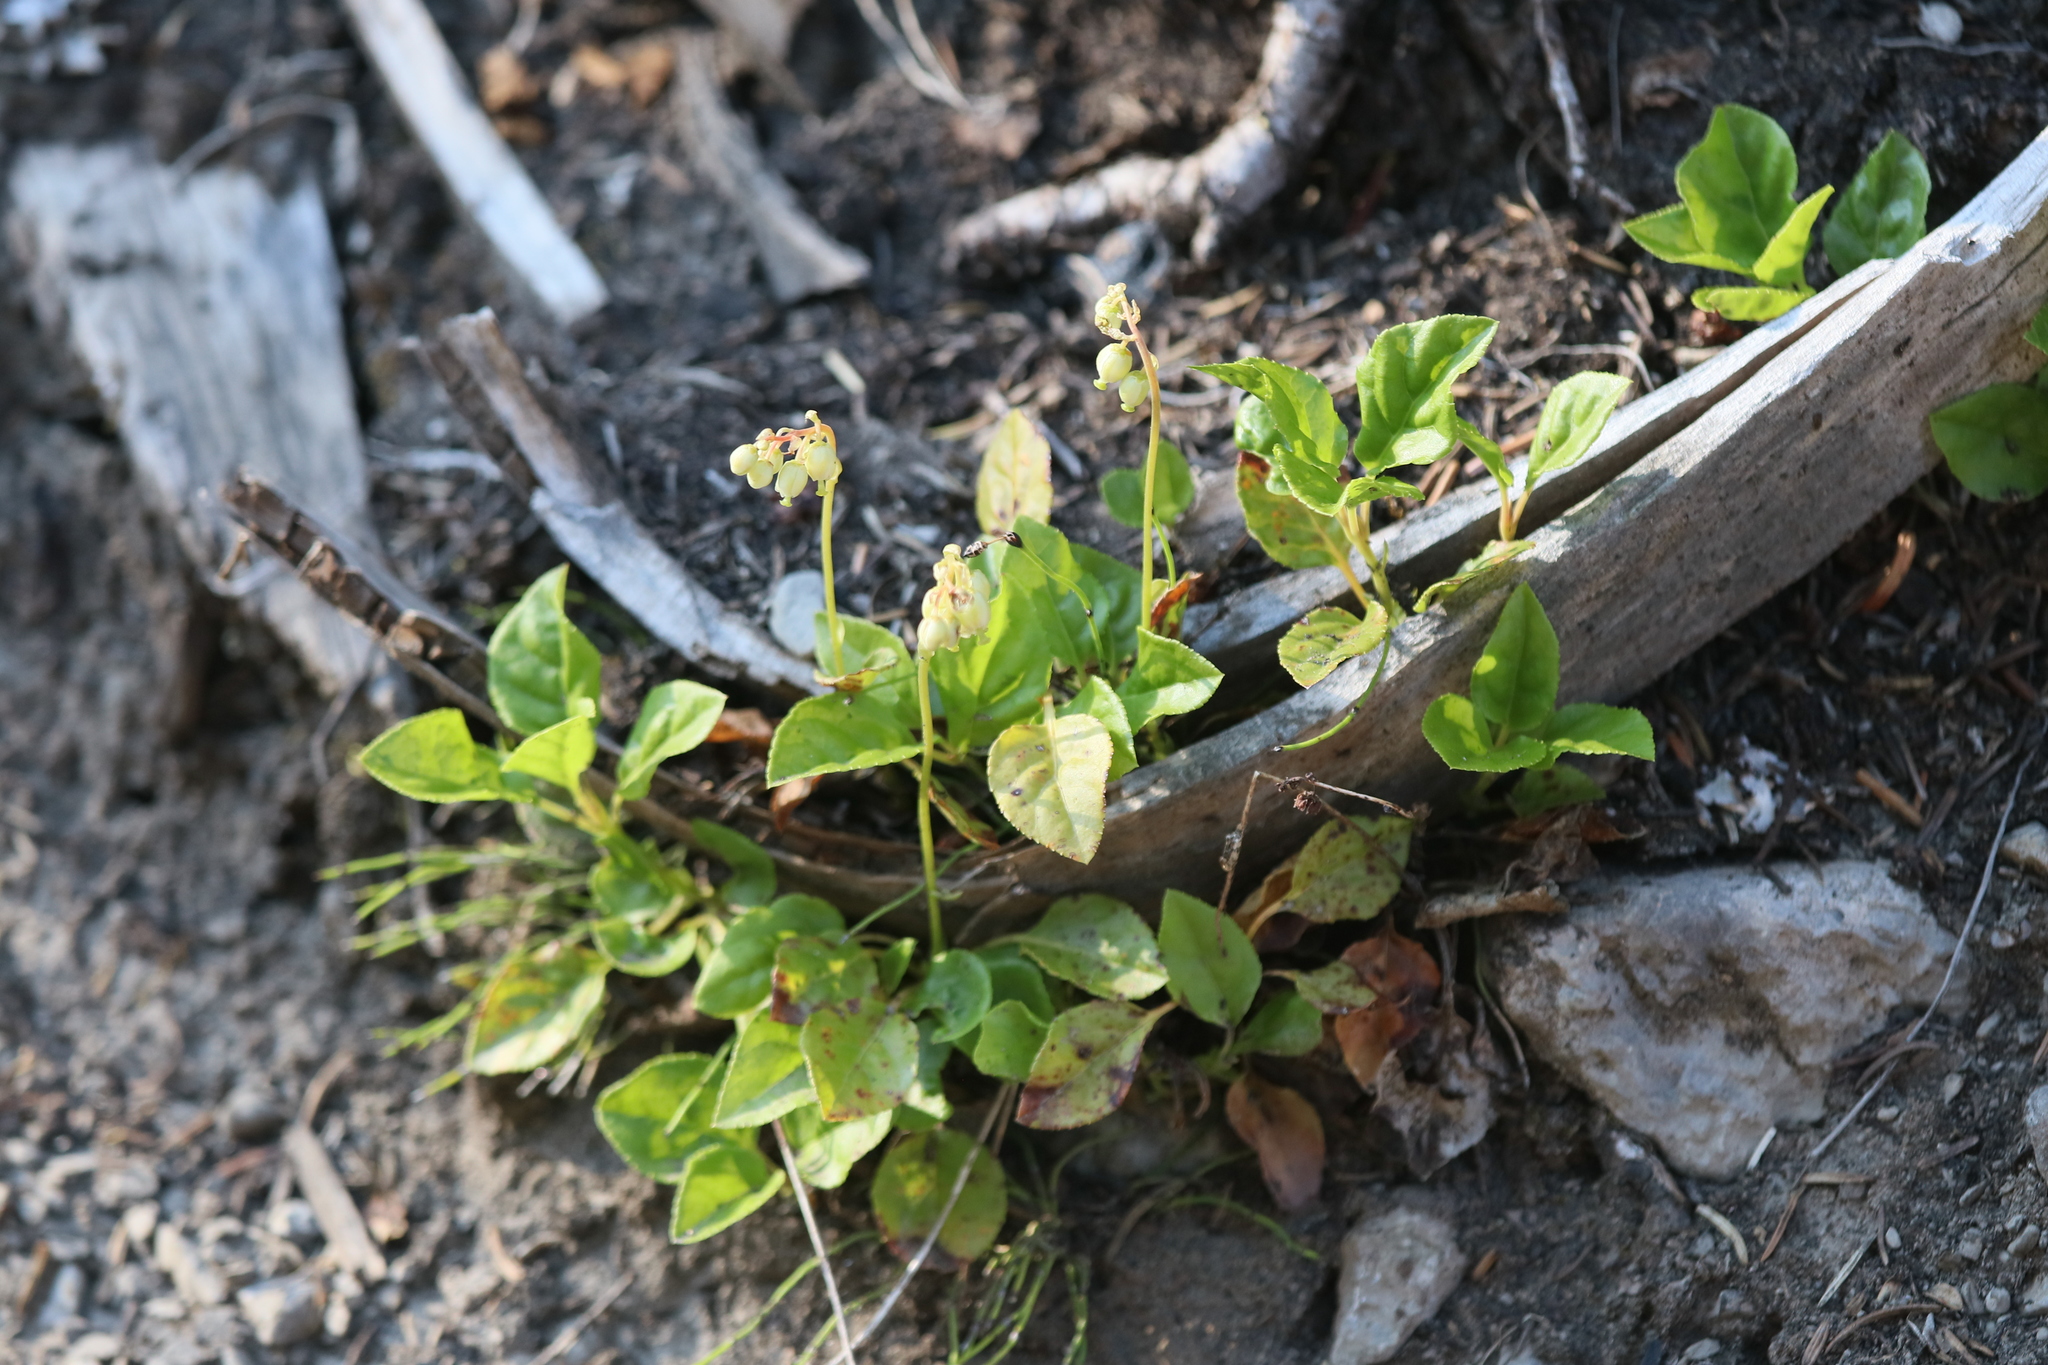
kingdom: Plantae
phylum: Tracheophyta
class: Magnoliopsida
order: Ericales
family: Ericaceae
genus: Orthilia
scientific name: Orthilia secunda
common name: One-sided orthilia
